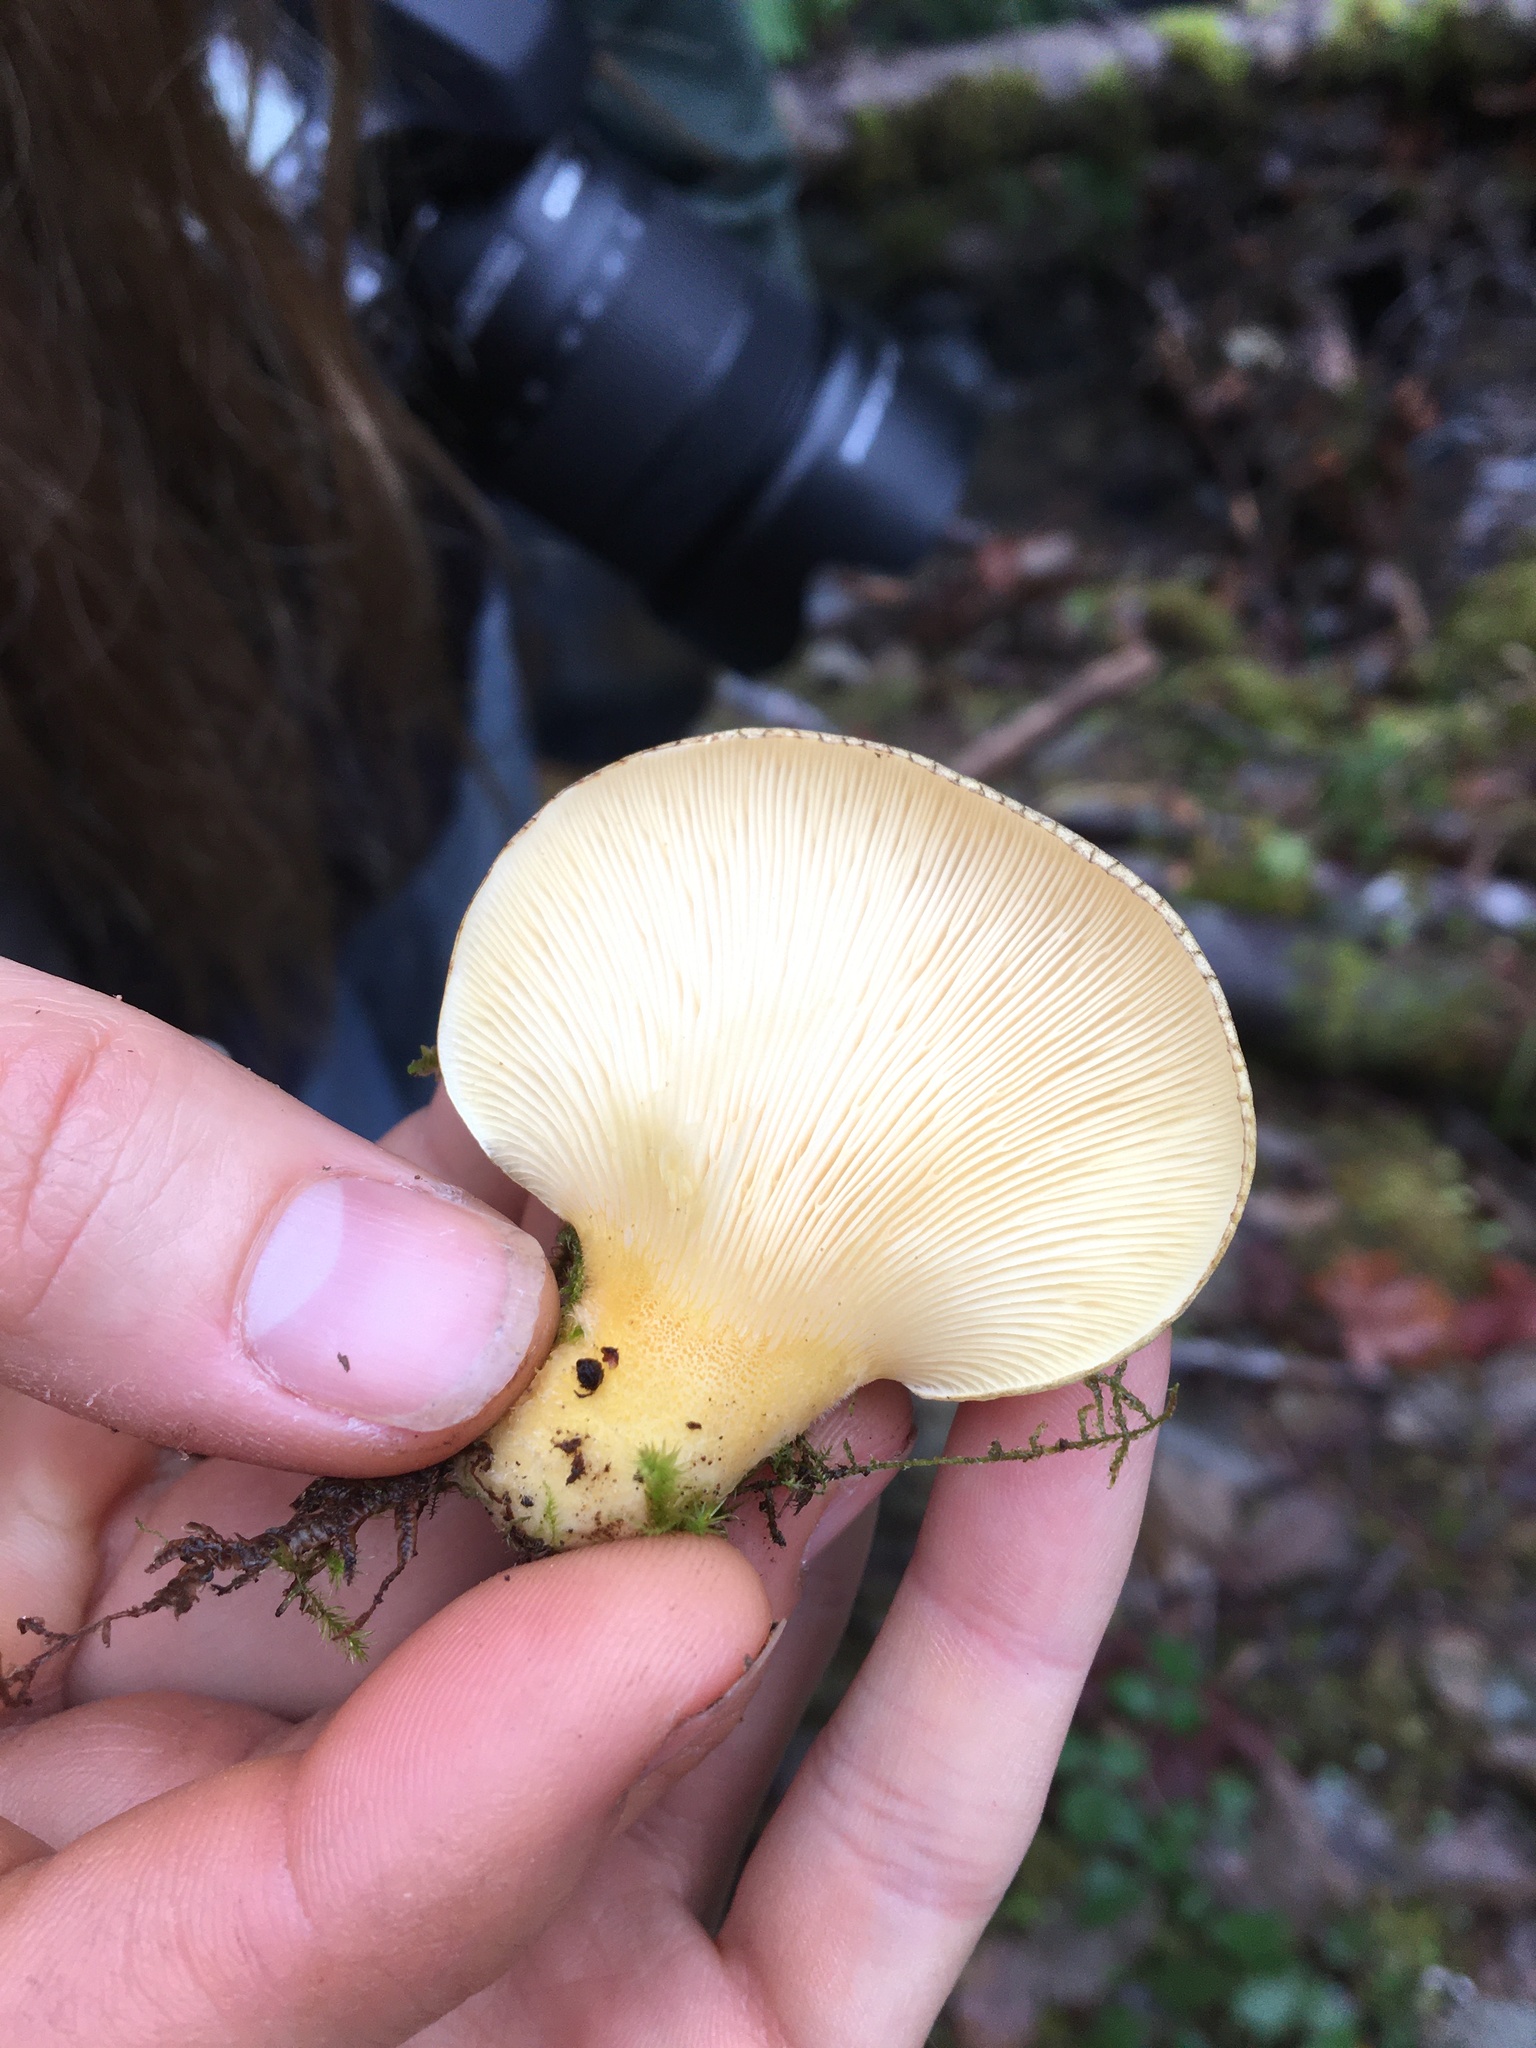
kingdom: Fungi
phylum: Basidiomycota
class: Agaricomycetes
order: Agaricales
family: Sarcomyxaceae
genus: Sarcomyxa
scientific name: Sarcomyxa serotina
